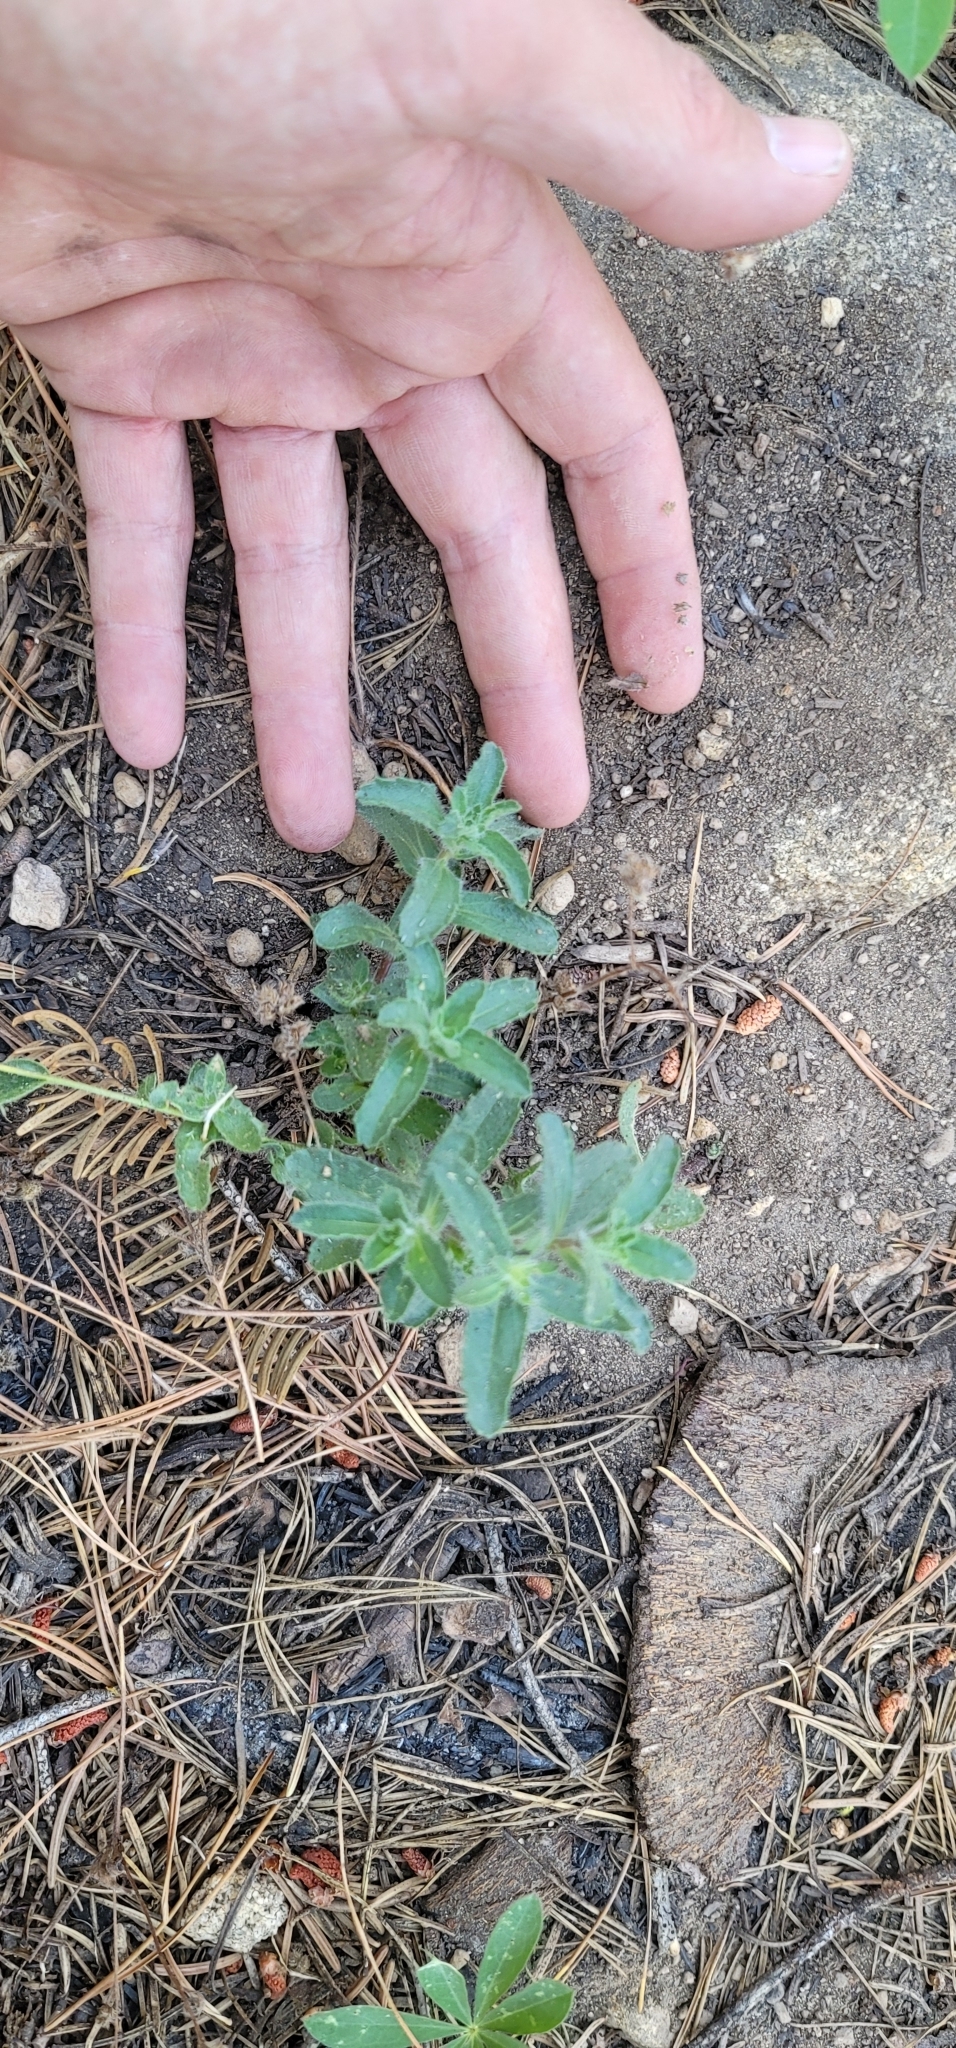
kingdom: Plantae
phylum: Tracheophyta
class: Magnoliopsida
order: Asterales
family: Asteraceae
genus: Hulsea
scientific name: Hulsea brevifolia
